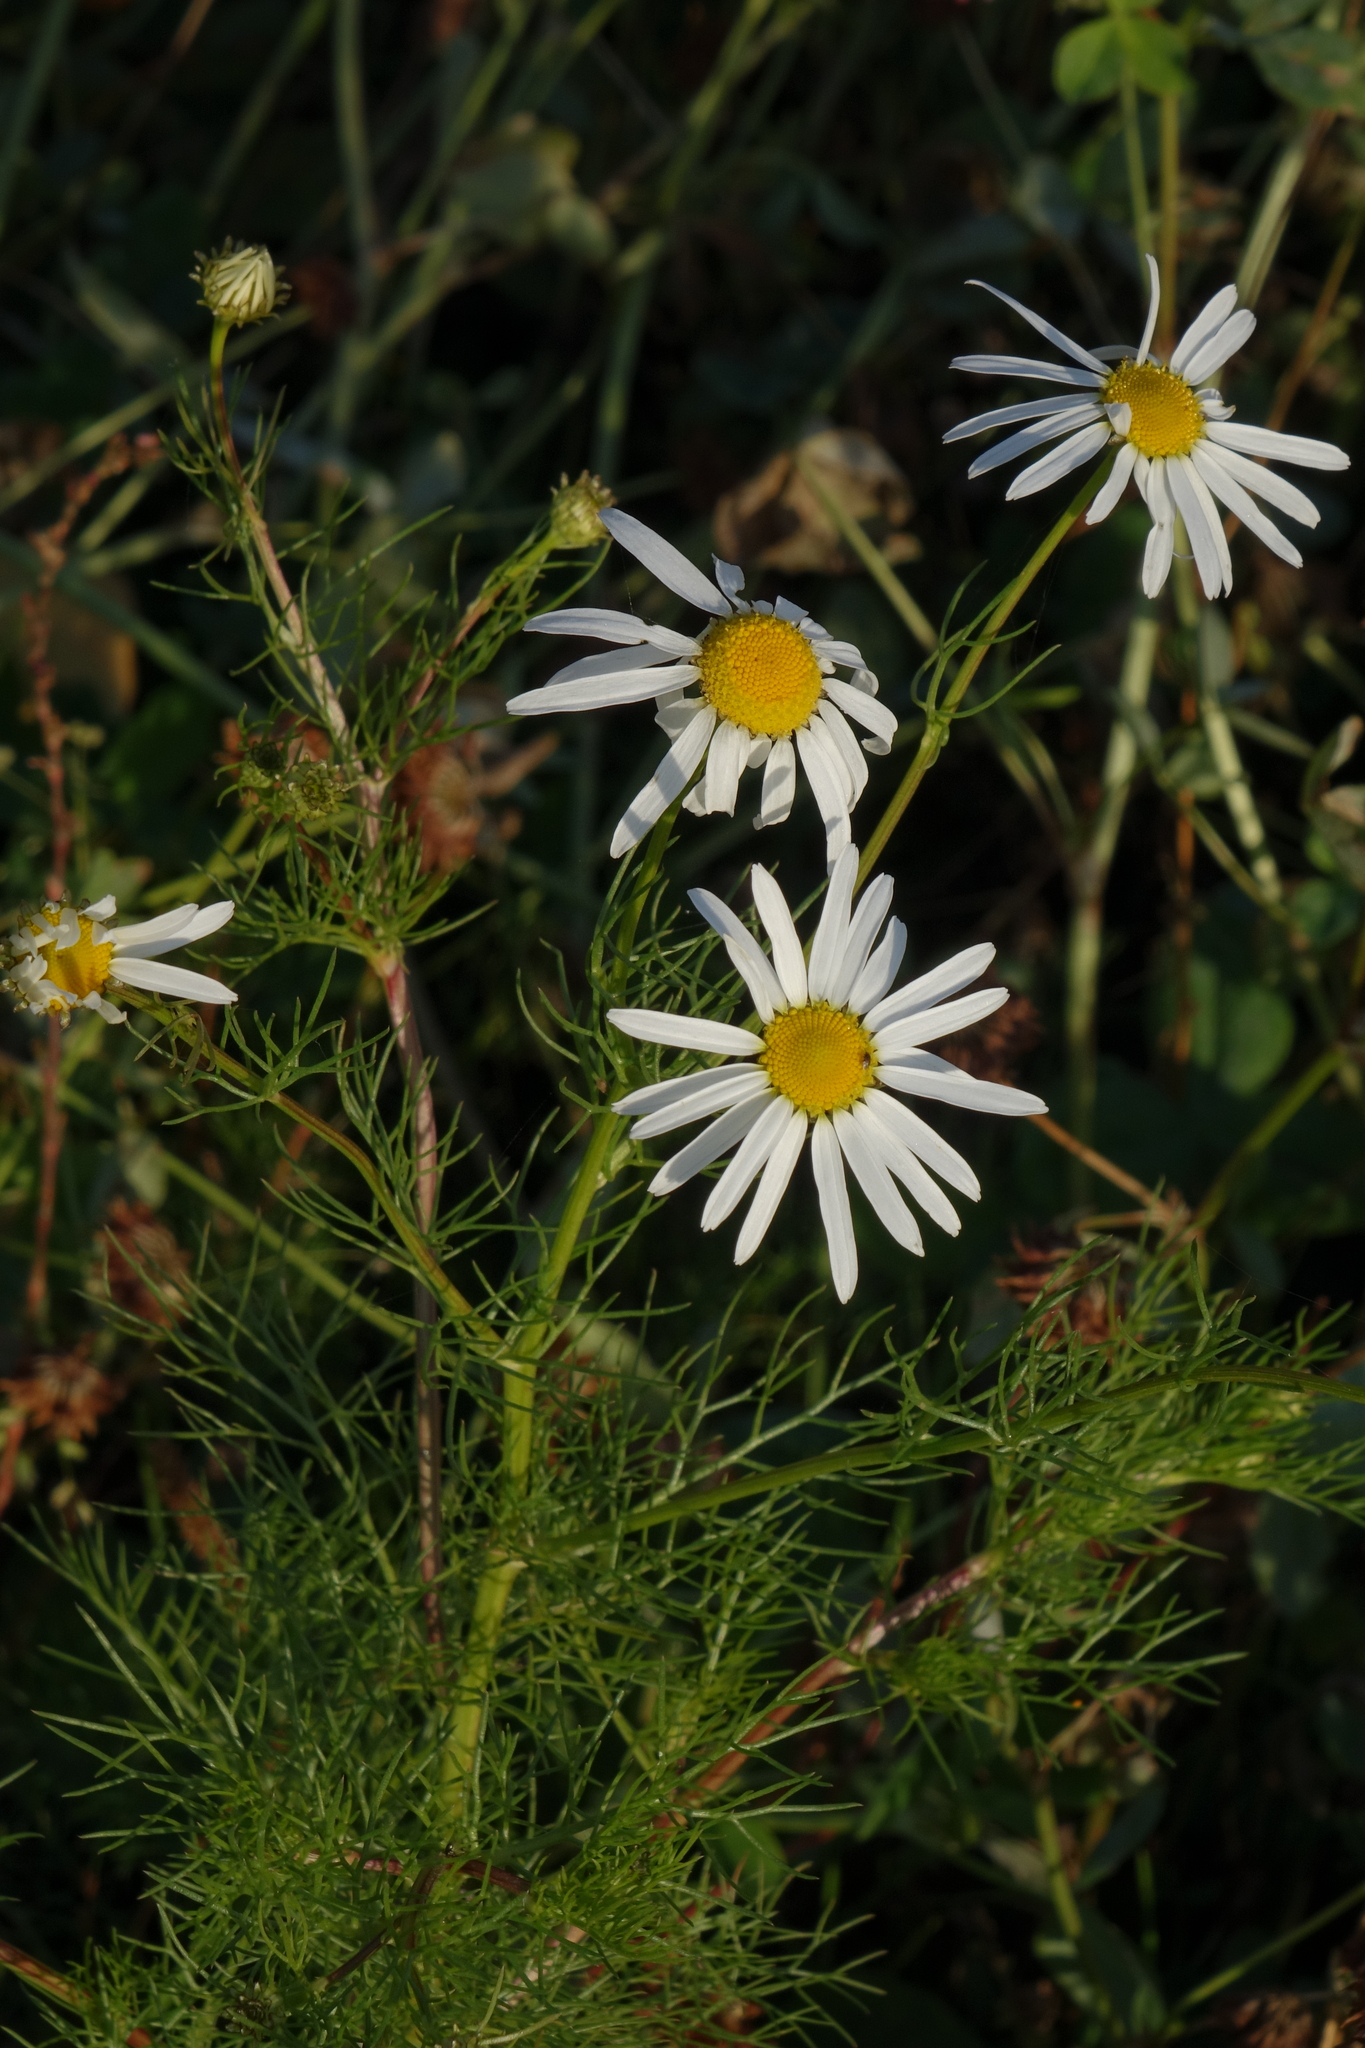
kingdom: Plantae
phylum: Tracheophyta
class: Magnoliopsida
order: Asterales
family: Asteraceae
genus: Tripleurospermum
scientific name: Tripleurospermum inodorum
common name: Scentless mayweed
